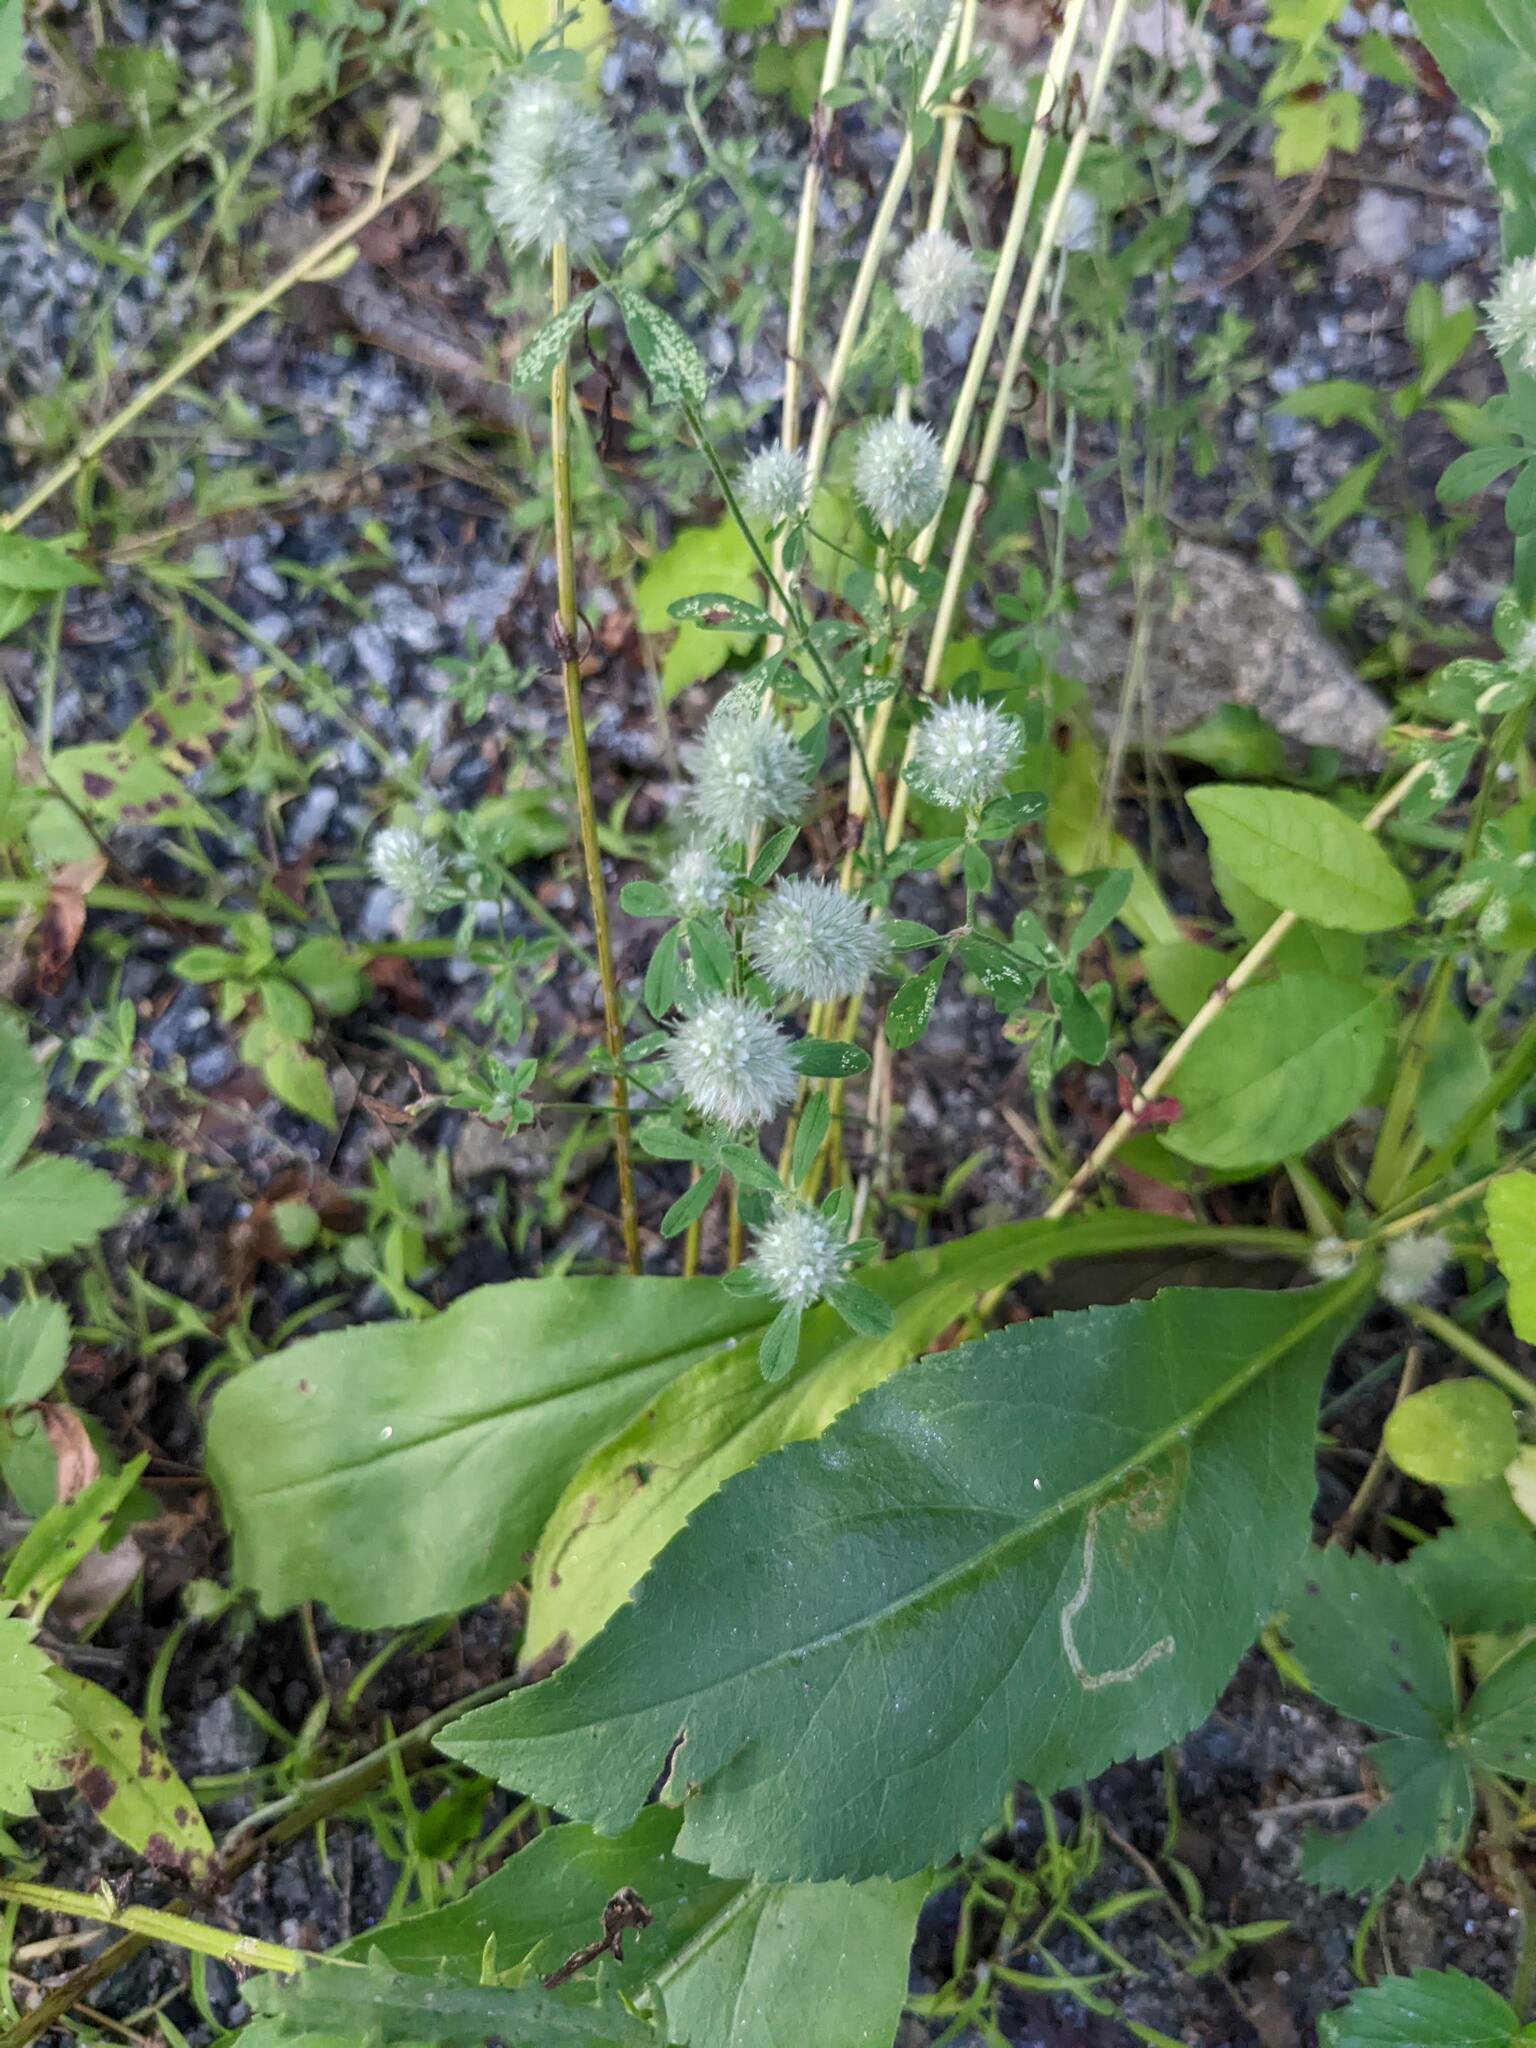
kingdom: Plantae
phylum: Tracheophyta
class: Magnoliopsida
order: Fabales
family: Fabaceae
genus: Trifolium
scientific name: Trifolium arvense
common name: Hare's-foot clover
